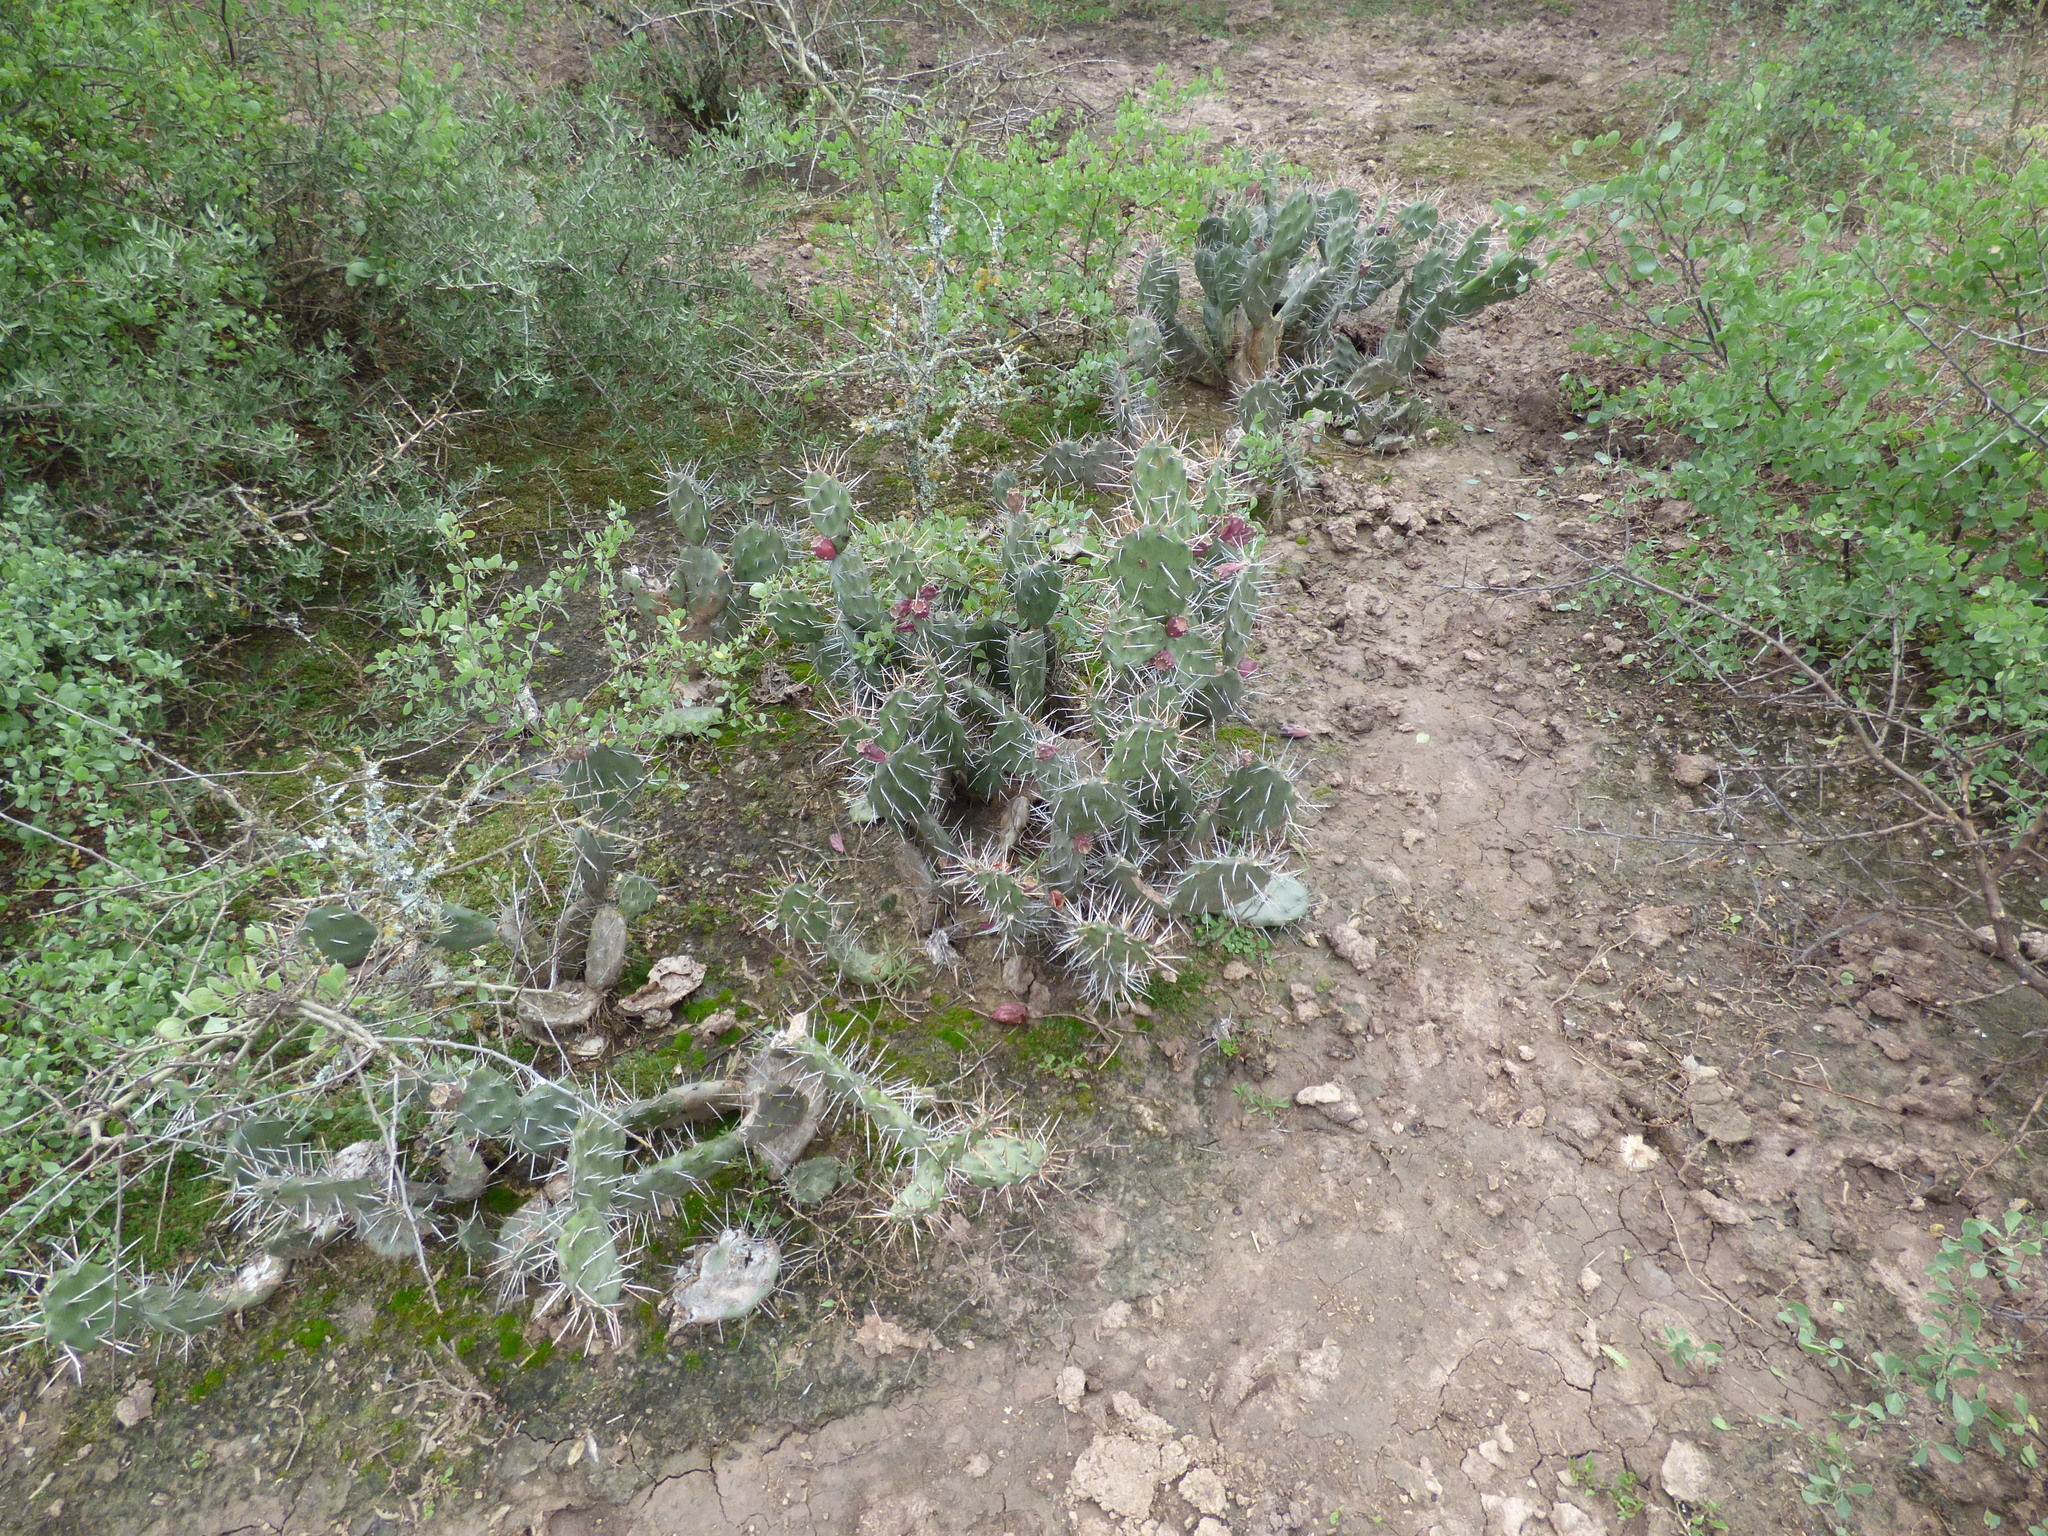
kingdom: Plantae
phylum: Tracheophyta
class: Magnoliopsida
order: Caryophyllales
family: Cactaceae
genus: Opuntia
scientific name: Opuntia sulphurea
